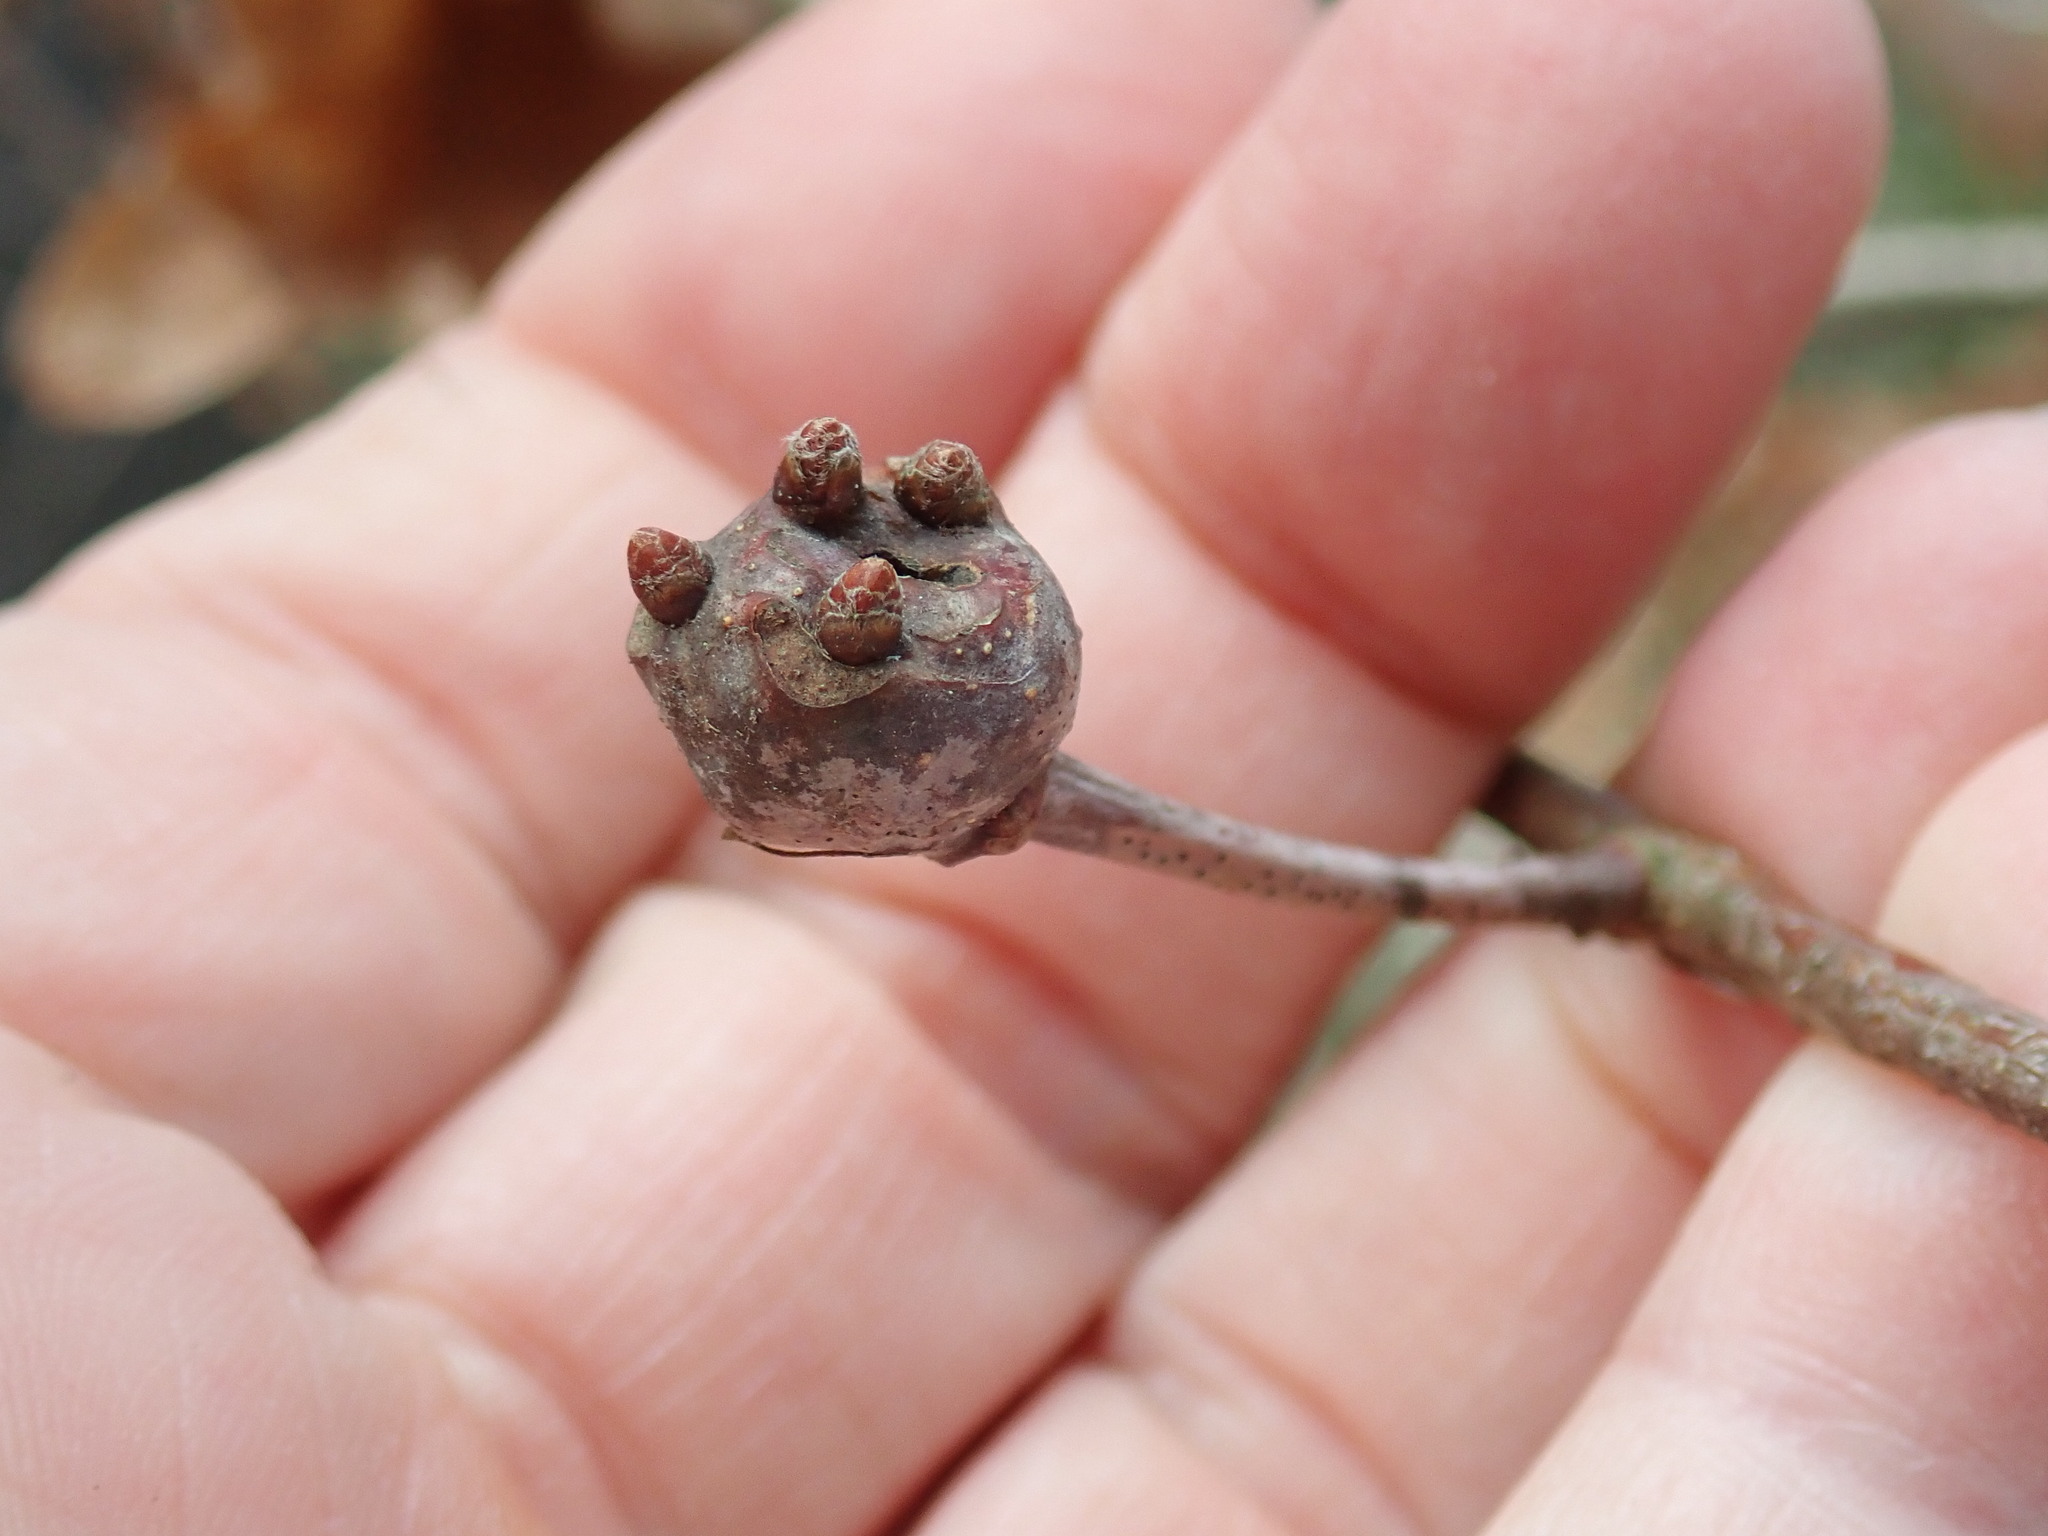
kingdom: Animalia
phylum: Arthropoda
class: Insecta
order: Hymenoptera
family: Cynipidae
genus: Callirhytis
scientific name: Callirhytis clavula
